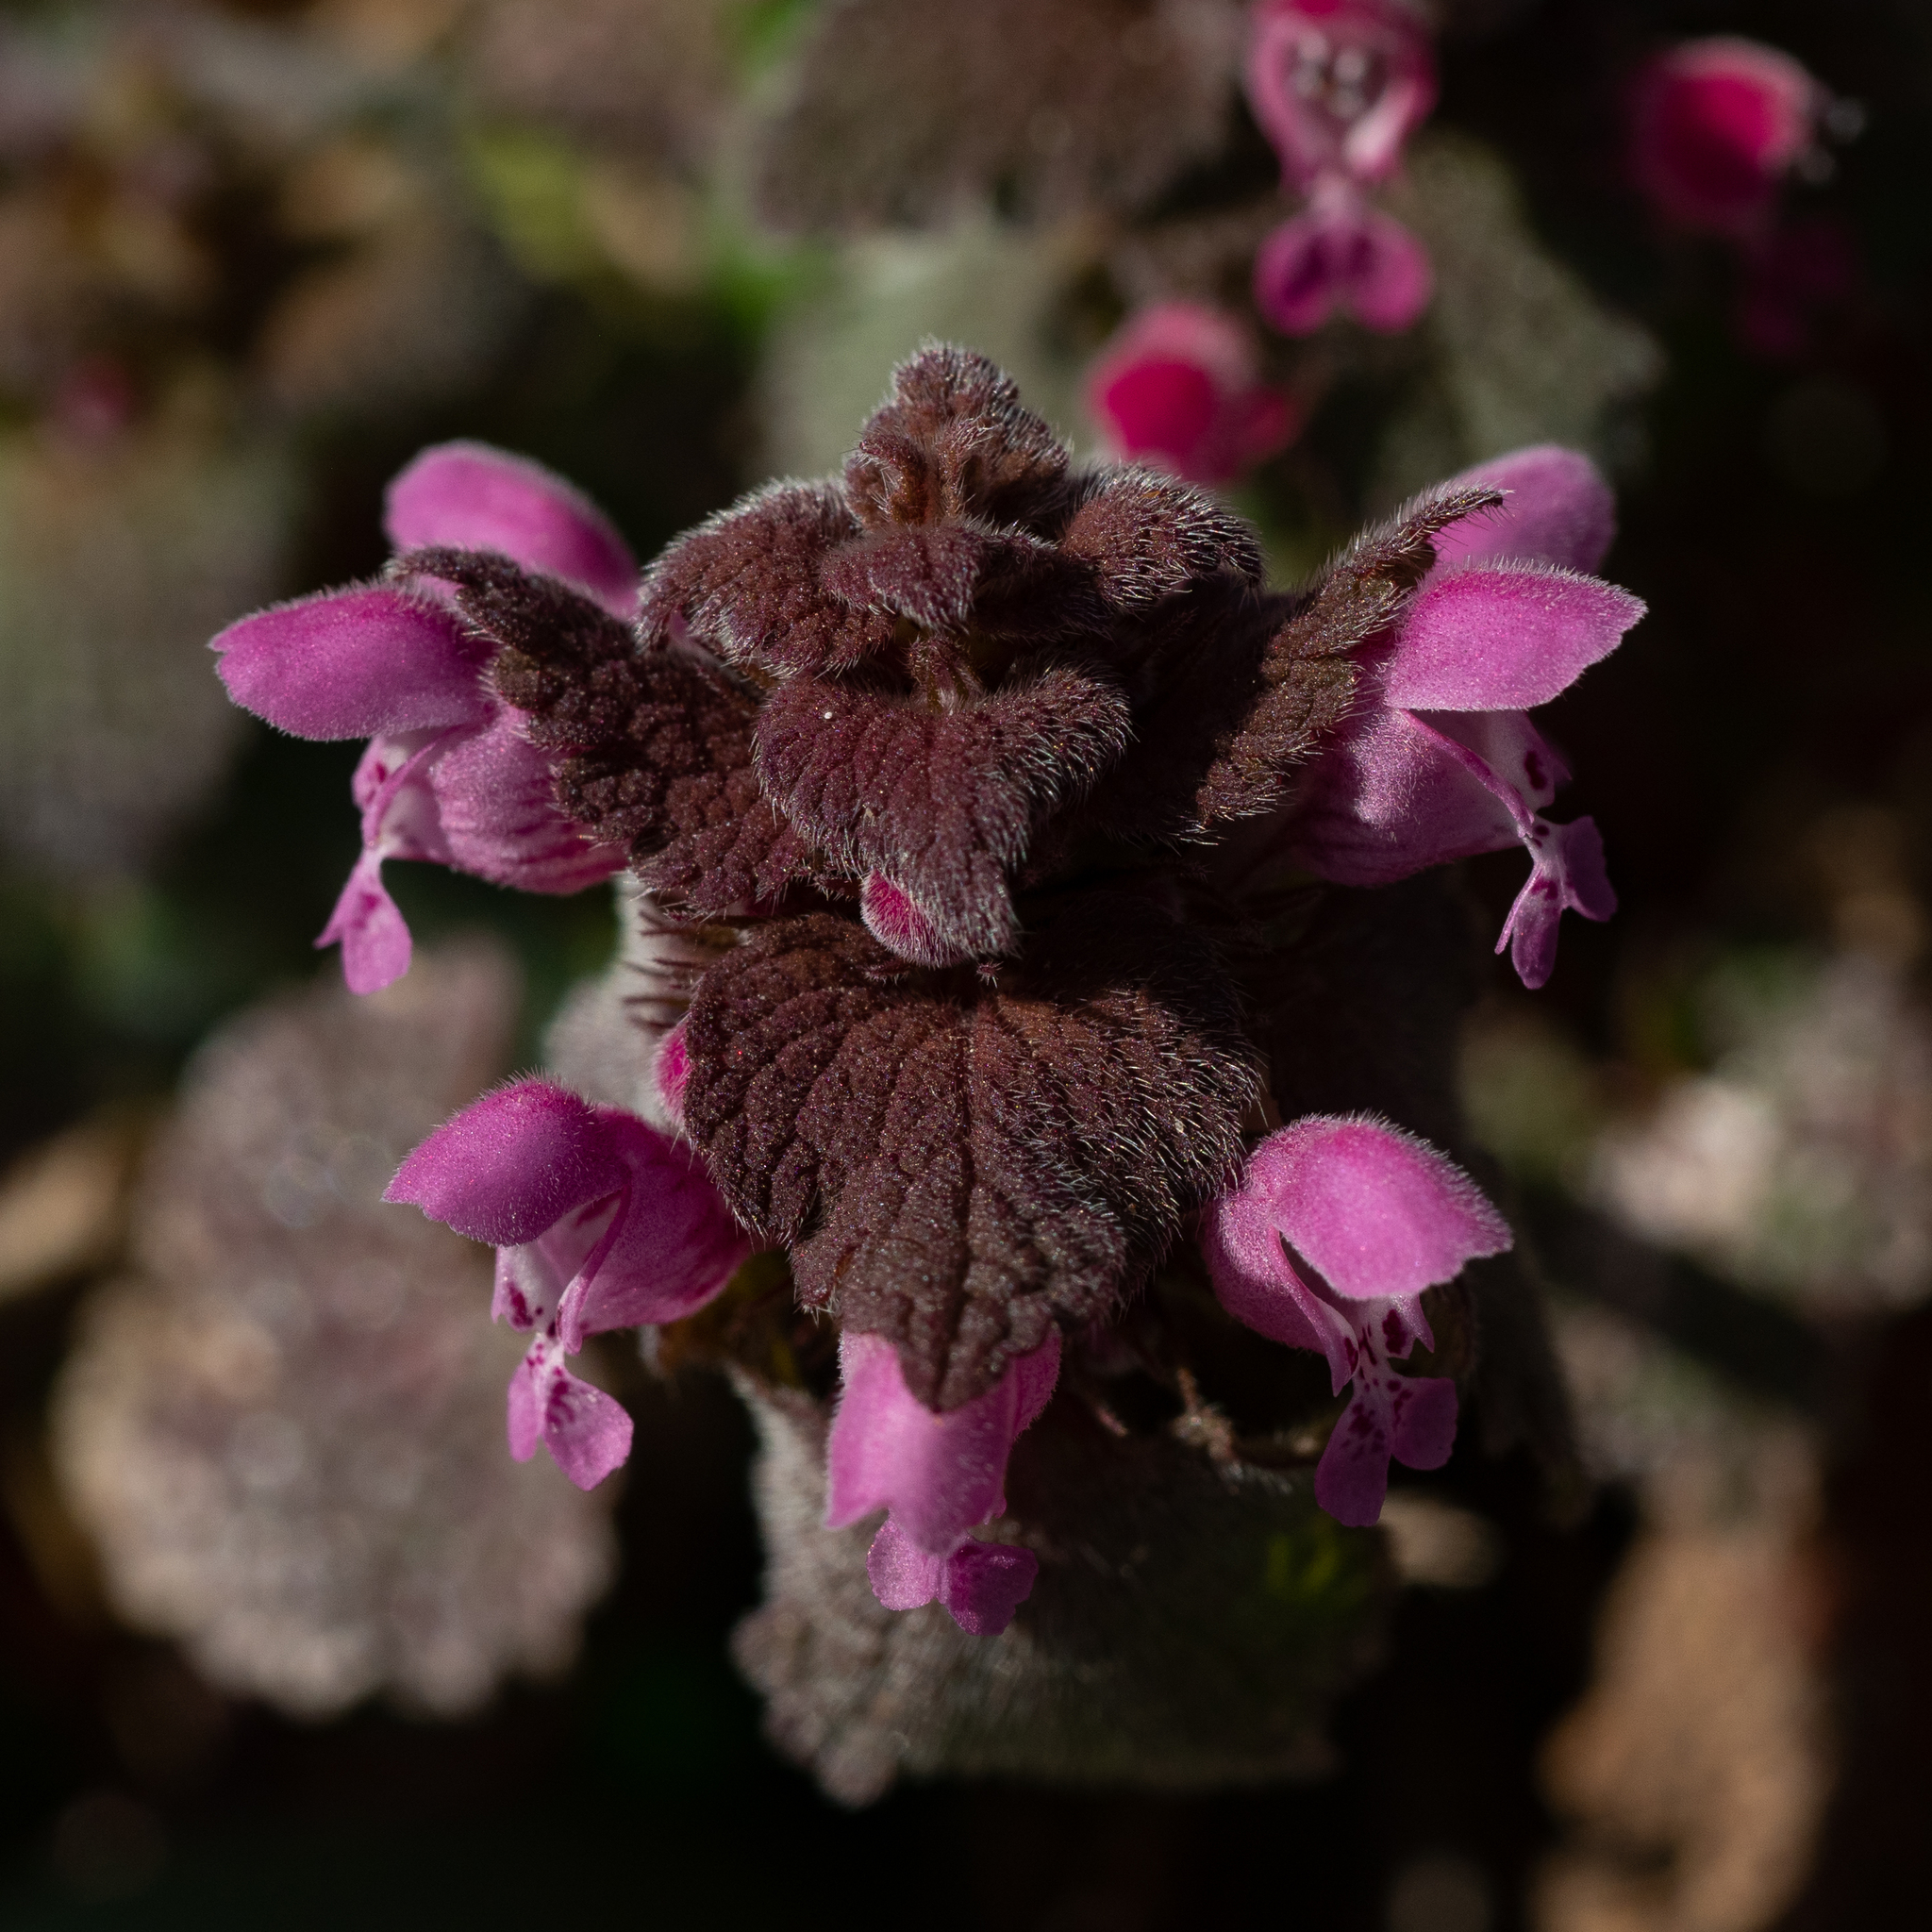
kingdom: Plantae
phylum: Tracheophyta
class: Magnoliopsida
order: Lamiales
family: Lamiaceae
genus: Lamium
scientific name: Lamium purpureum
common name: Red dead-nettle
